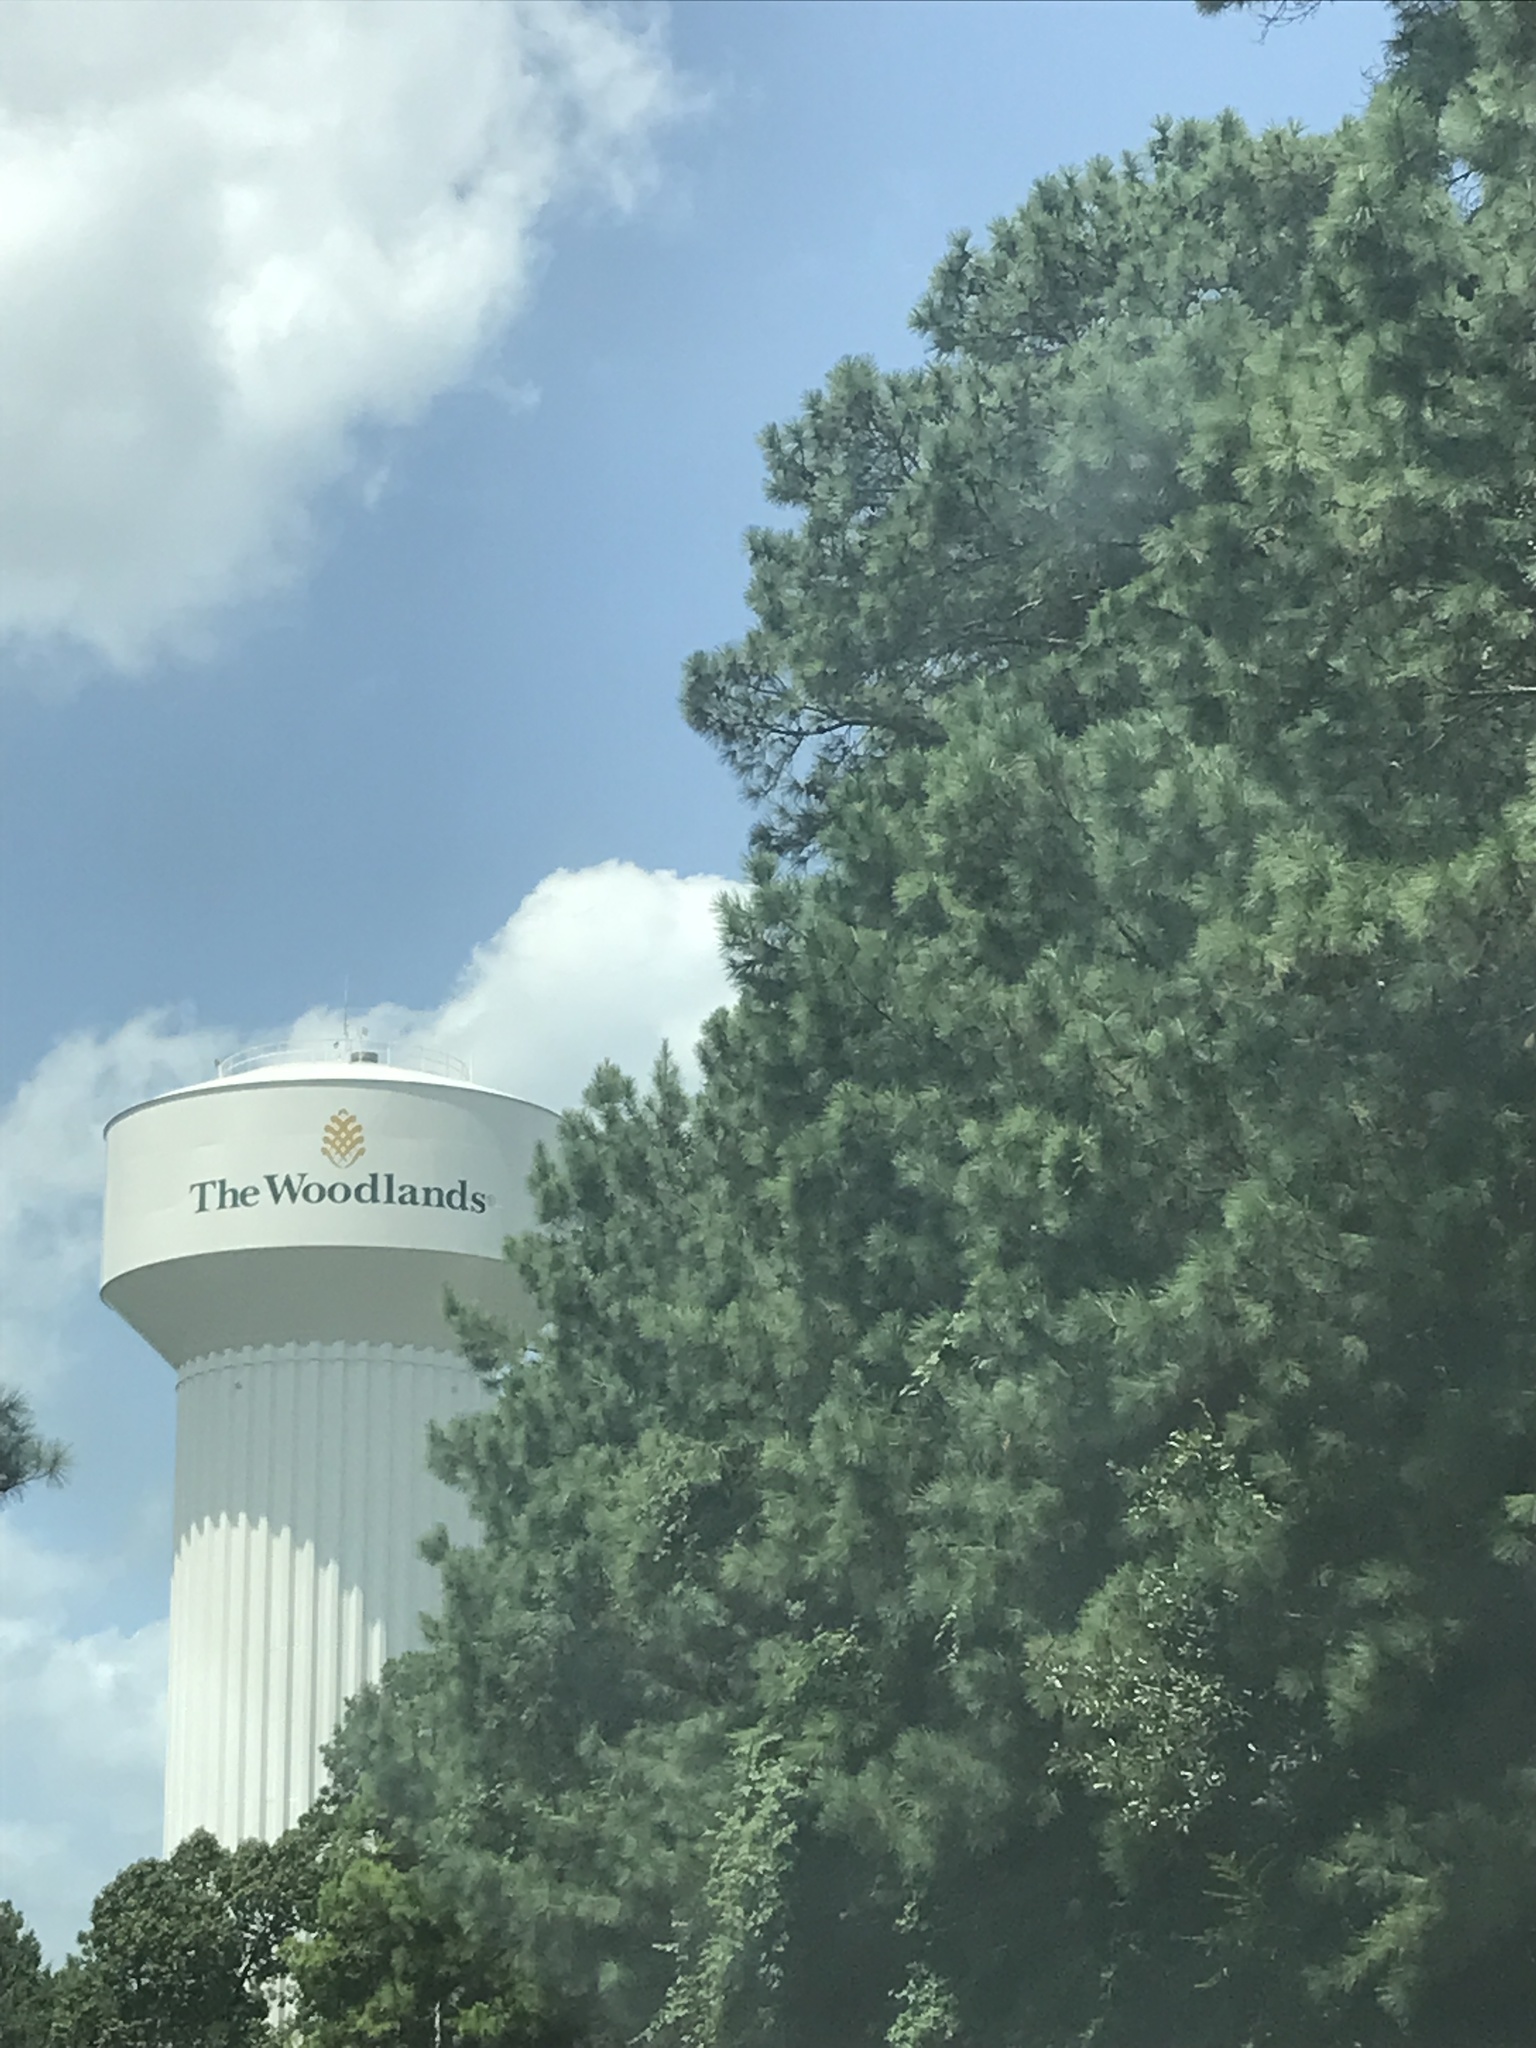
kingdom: Plantae
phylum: Tracheophyta
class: Pinopsida
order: Pinales
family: Pinaceae
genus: Pinus
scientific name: Pinus taeda
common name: Loblolly pine
